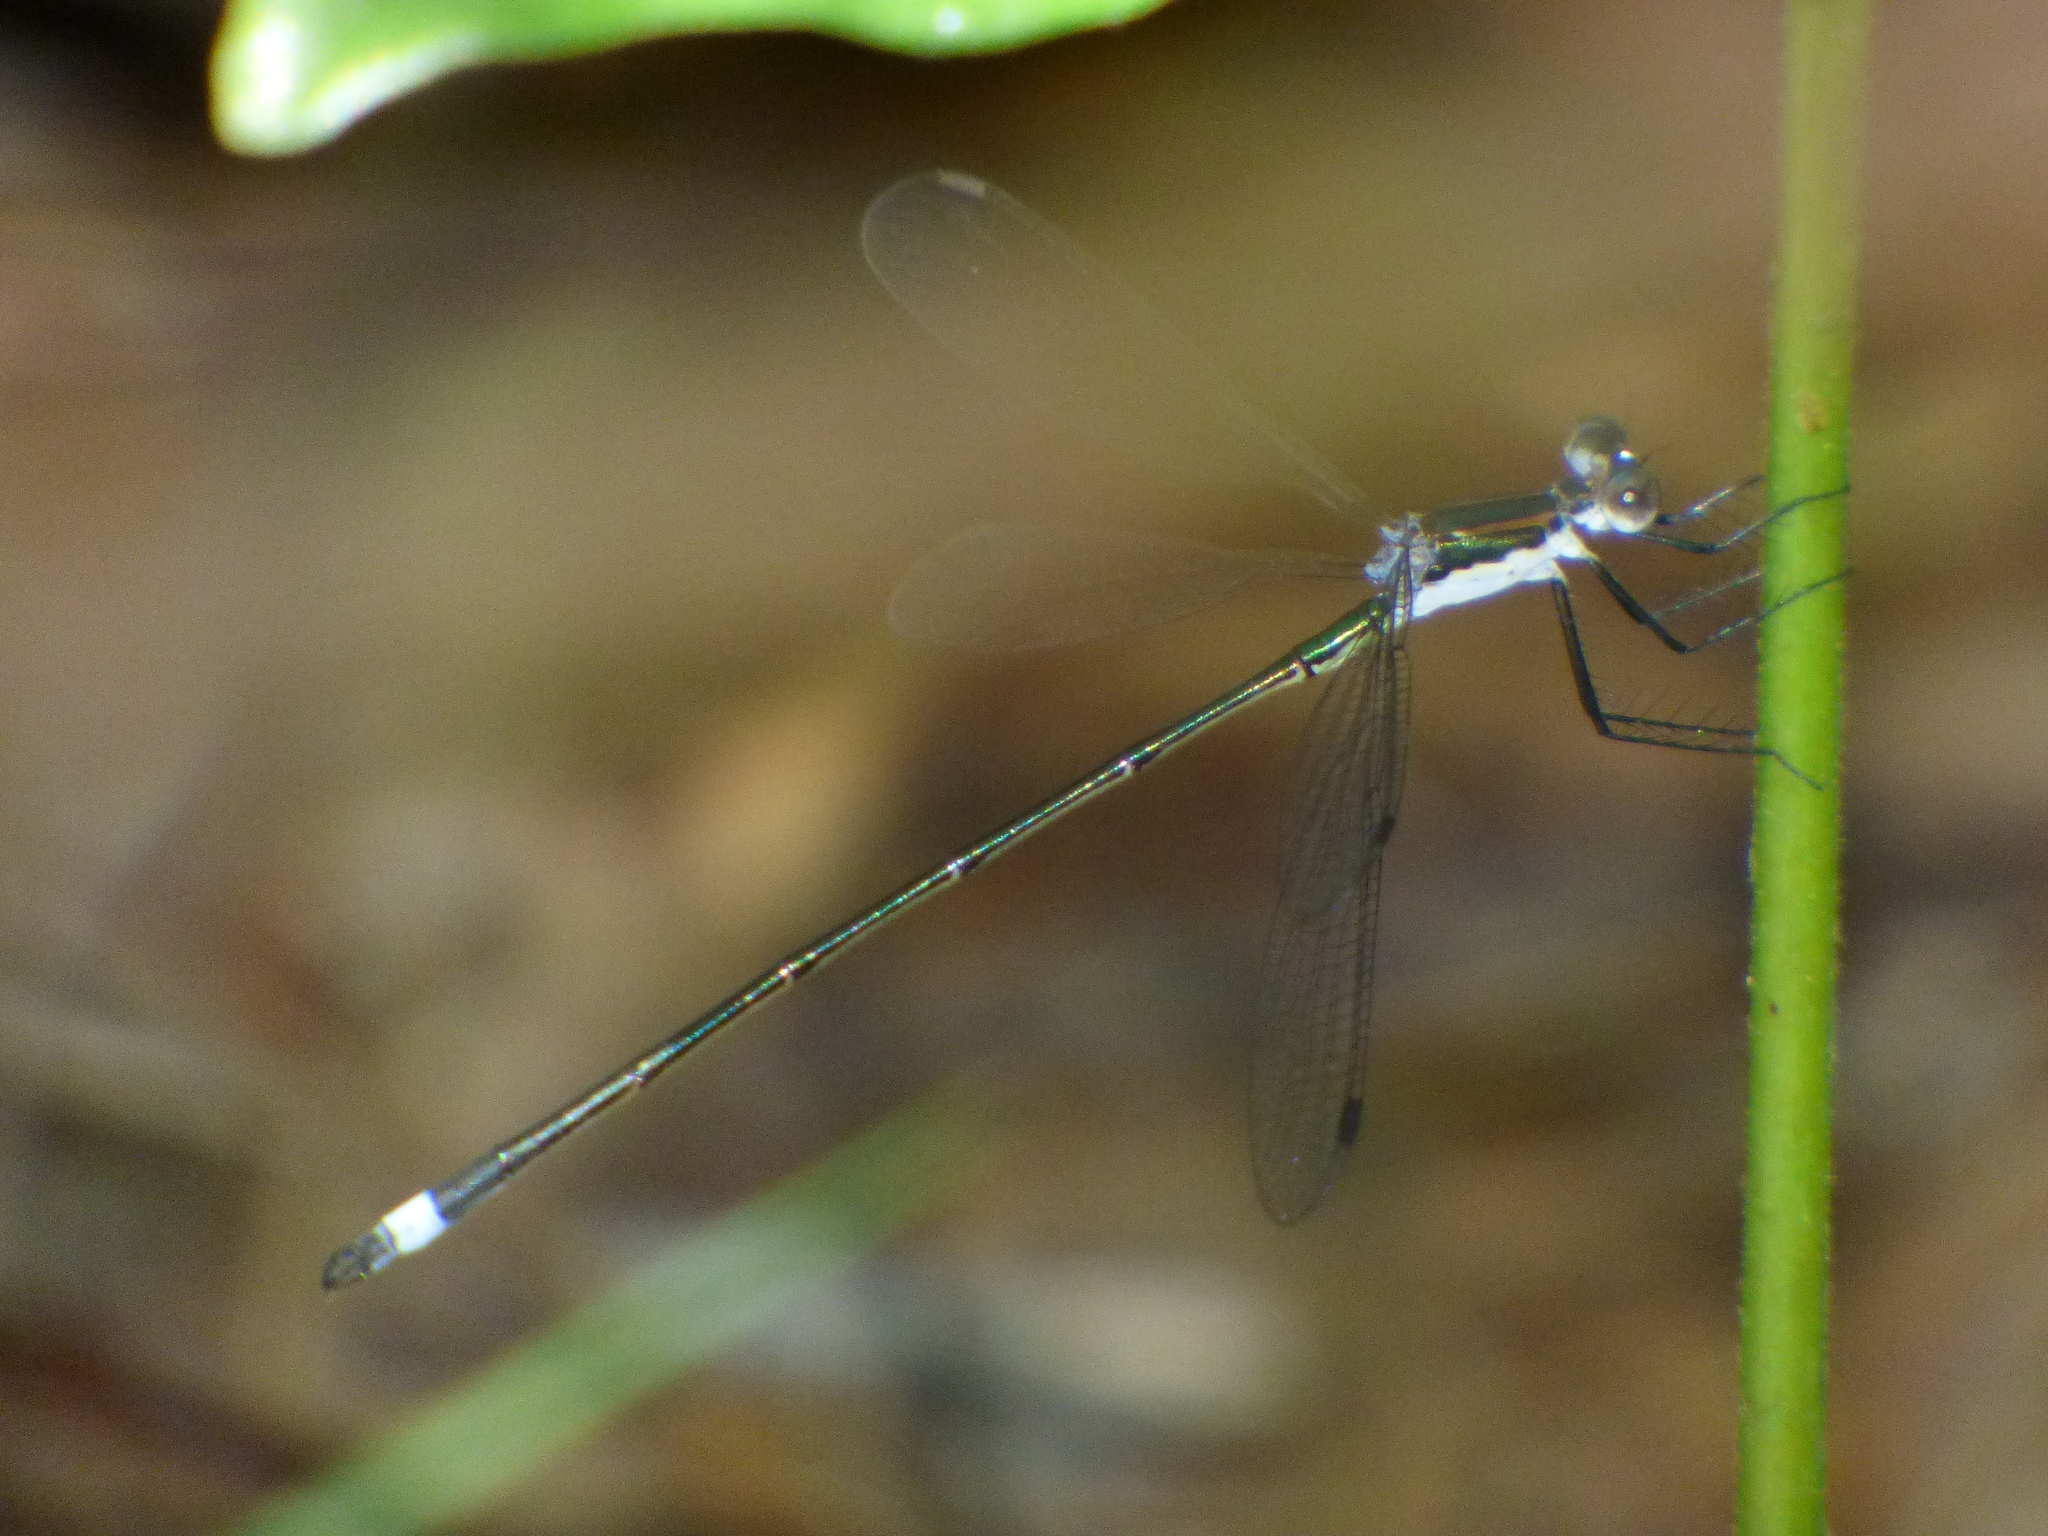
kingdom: Animalia
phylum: Arthropoda
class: Insecta
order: Odonata
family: Lestidae
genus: Lestes
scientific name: Lestes vigilax
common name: Swamp spreadwing
